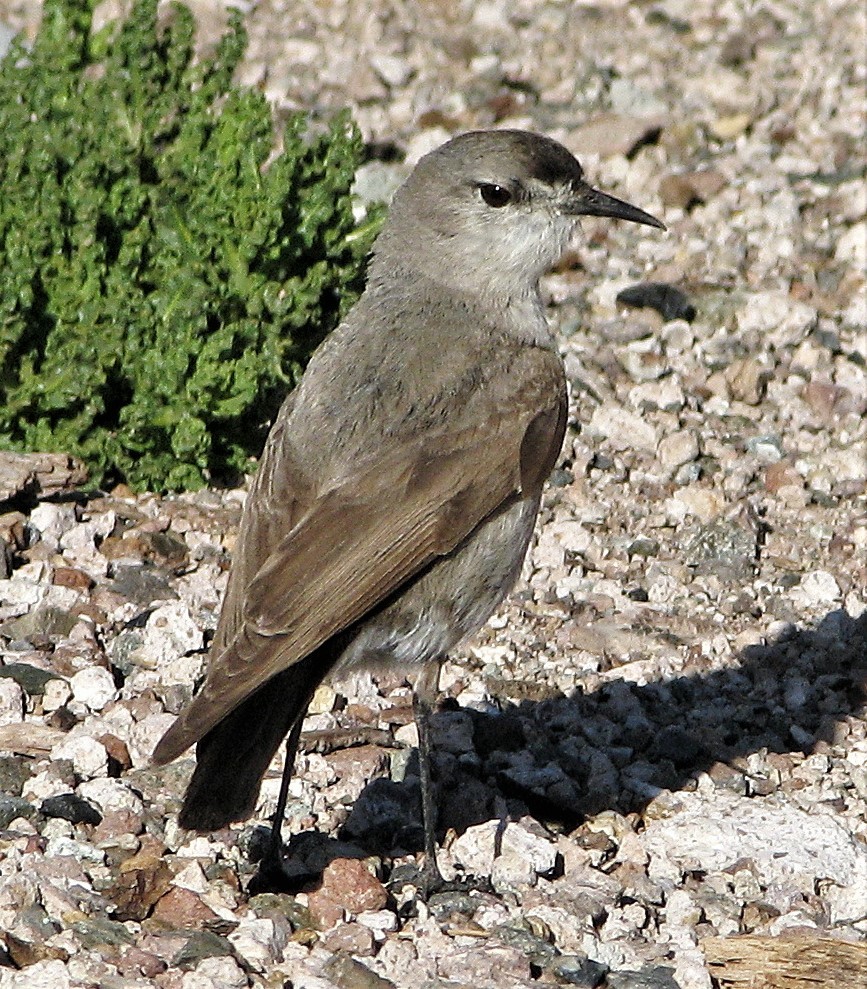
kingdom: Animalia
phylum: Chordata
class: Aves
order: Passeriformes
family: Tyrannidae
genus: Muscisaxicola
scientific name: Muscisaxicola frontalis
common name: Black-fronted ground tyrant
